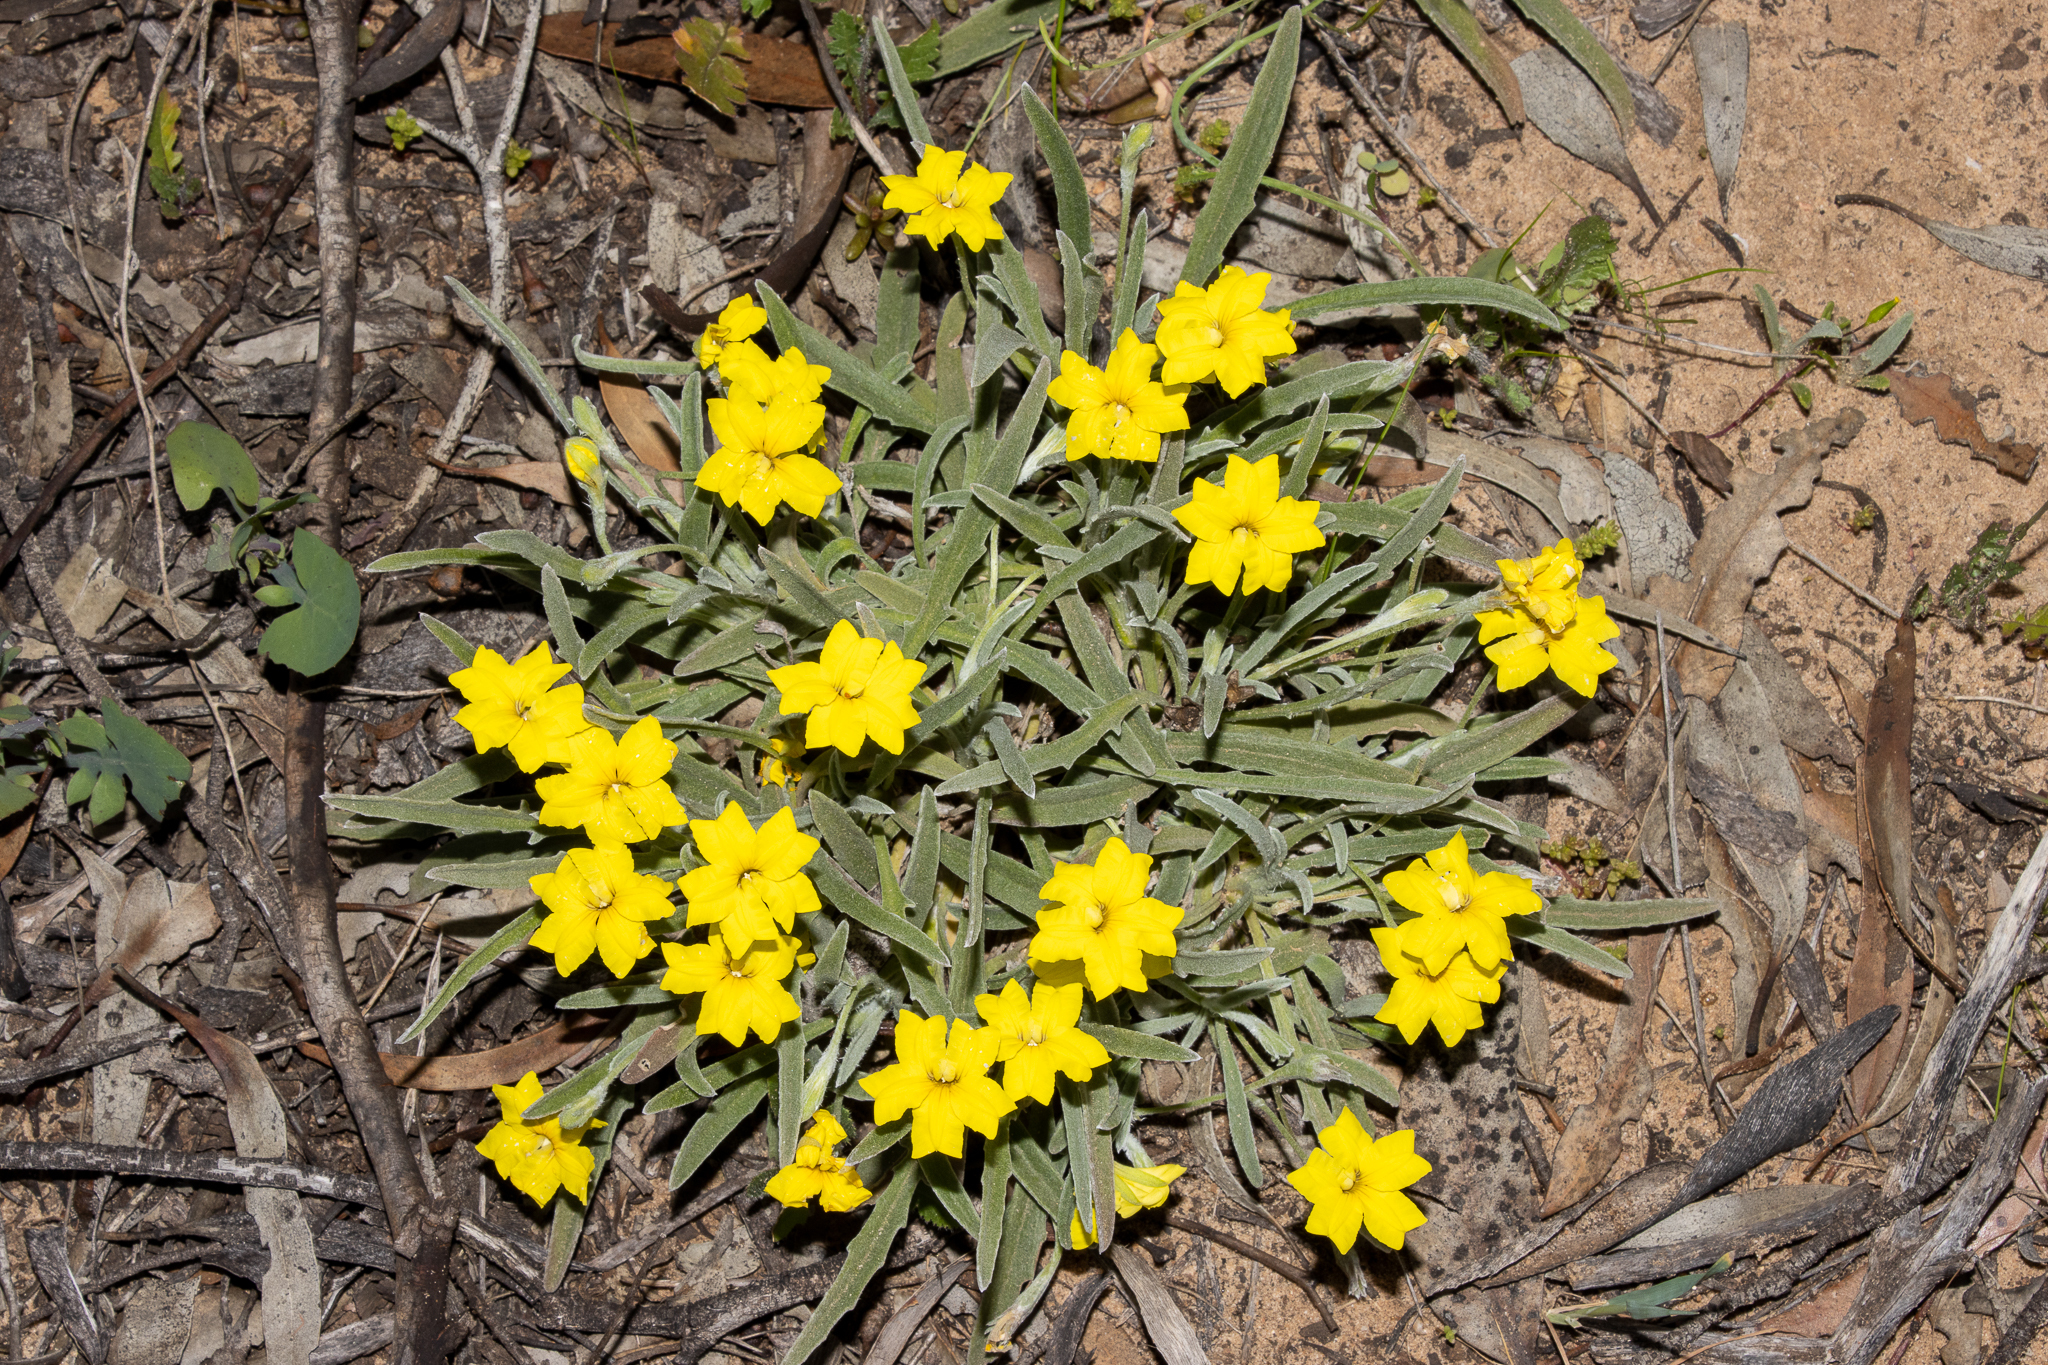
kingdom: Plantae
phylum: Tracheophyta
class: Magnoliopsida
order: Asterales
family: Goodeniaceae
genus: Goodenia
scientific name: Goodenia willisiana
